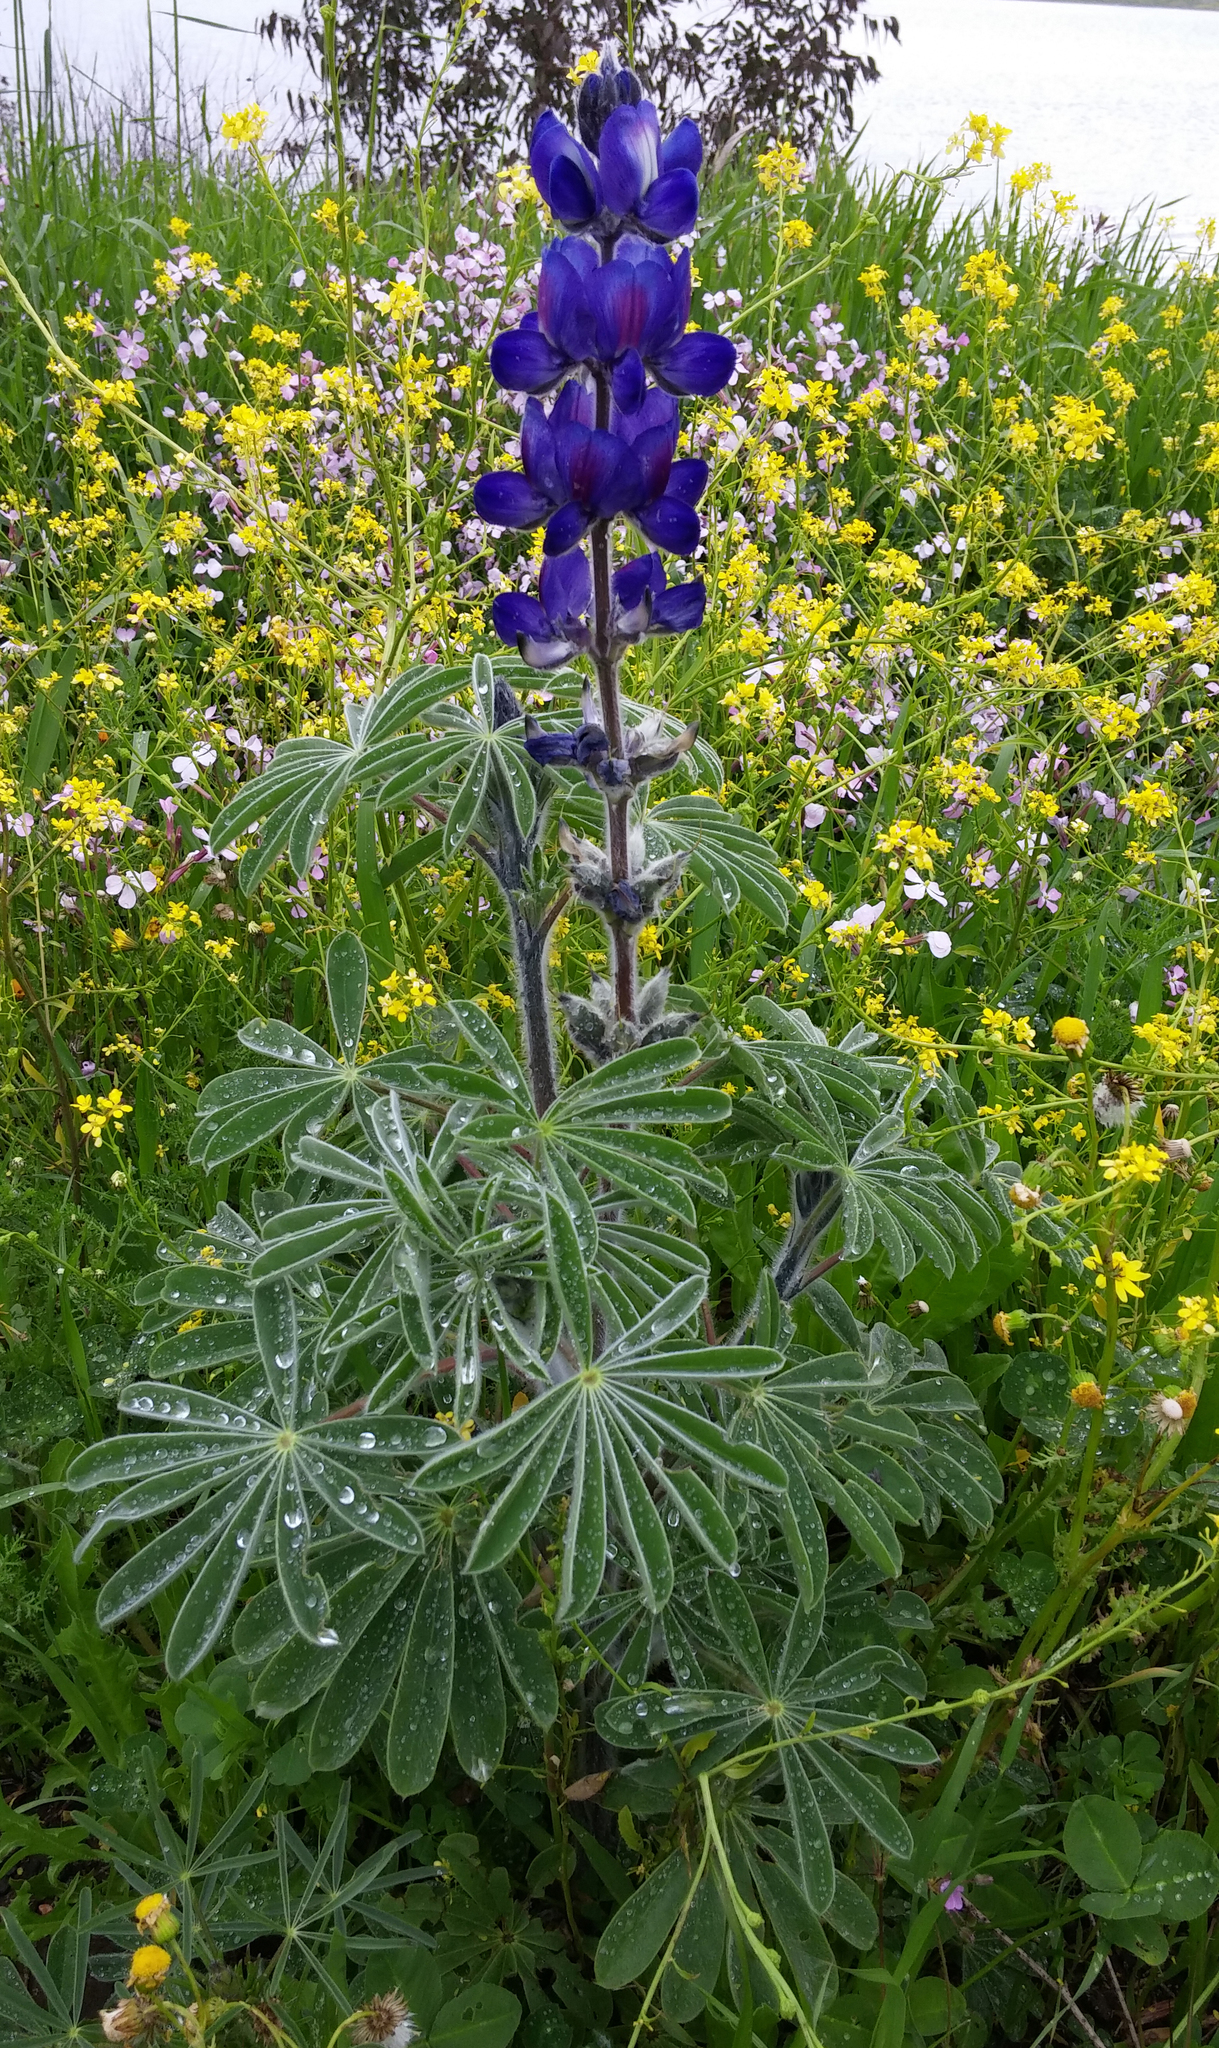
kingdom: Plantae
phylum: Tracheophyta
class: Magnoliopsida
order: Fabales
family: Fabaceae
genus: Lupinus
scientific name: Lupinus pilosus
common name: Blue lupine
